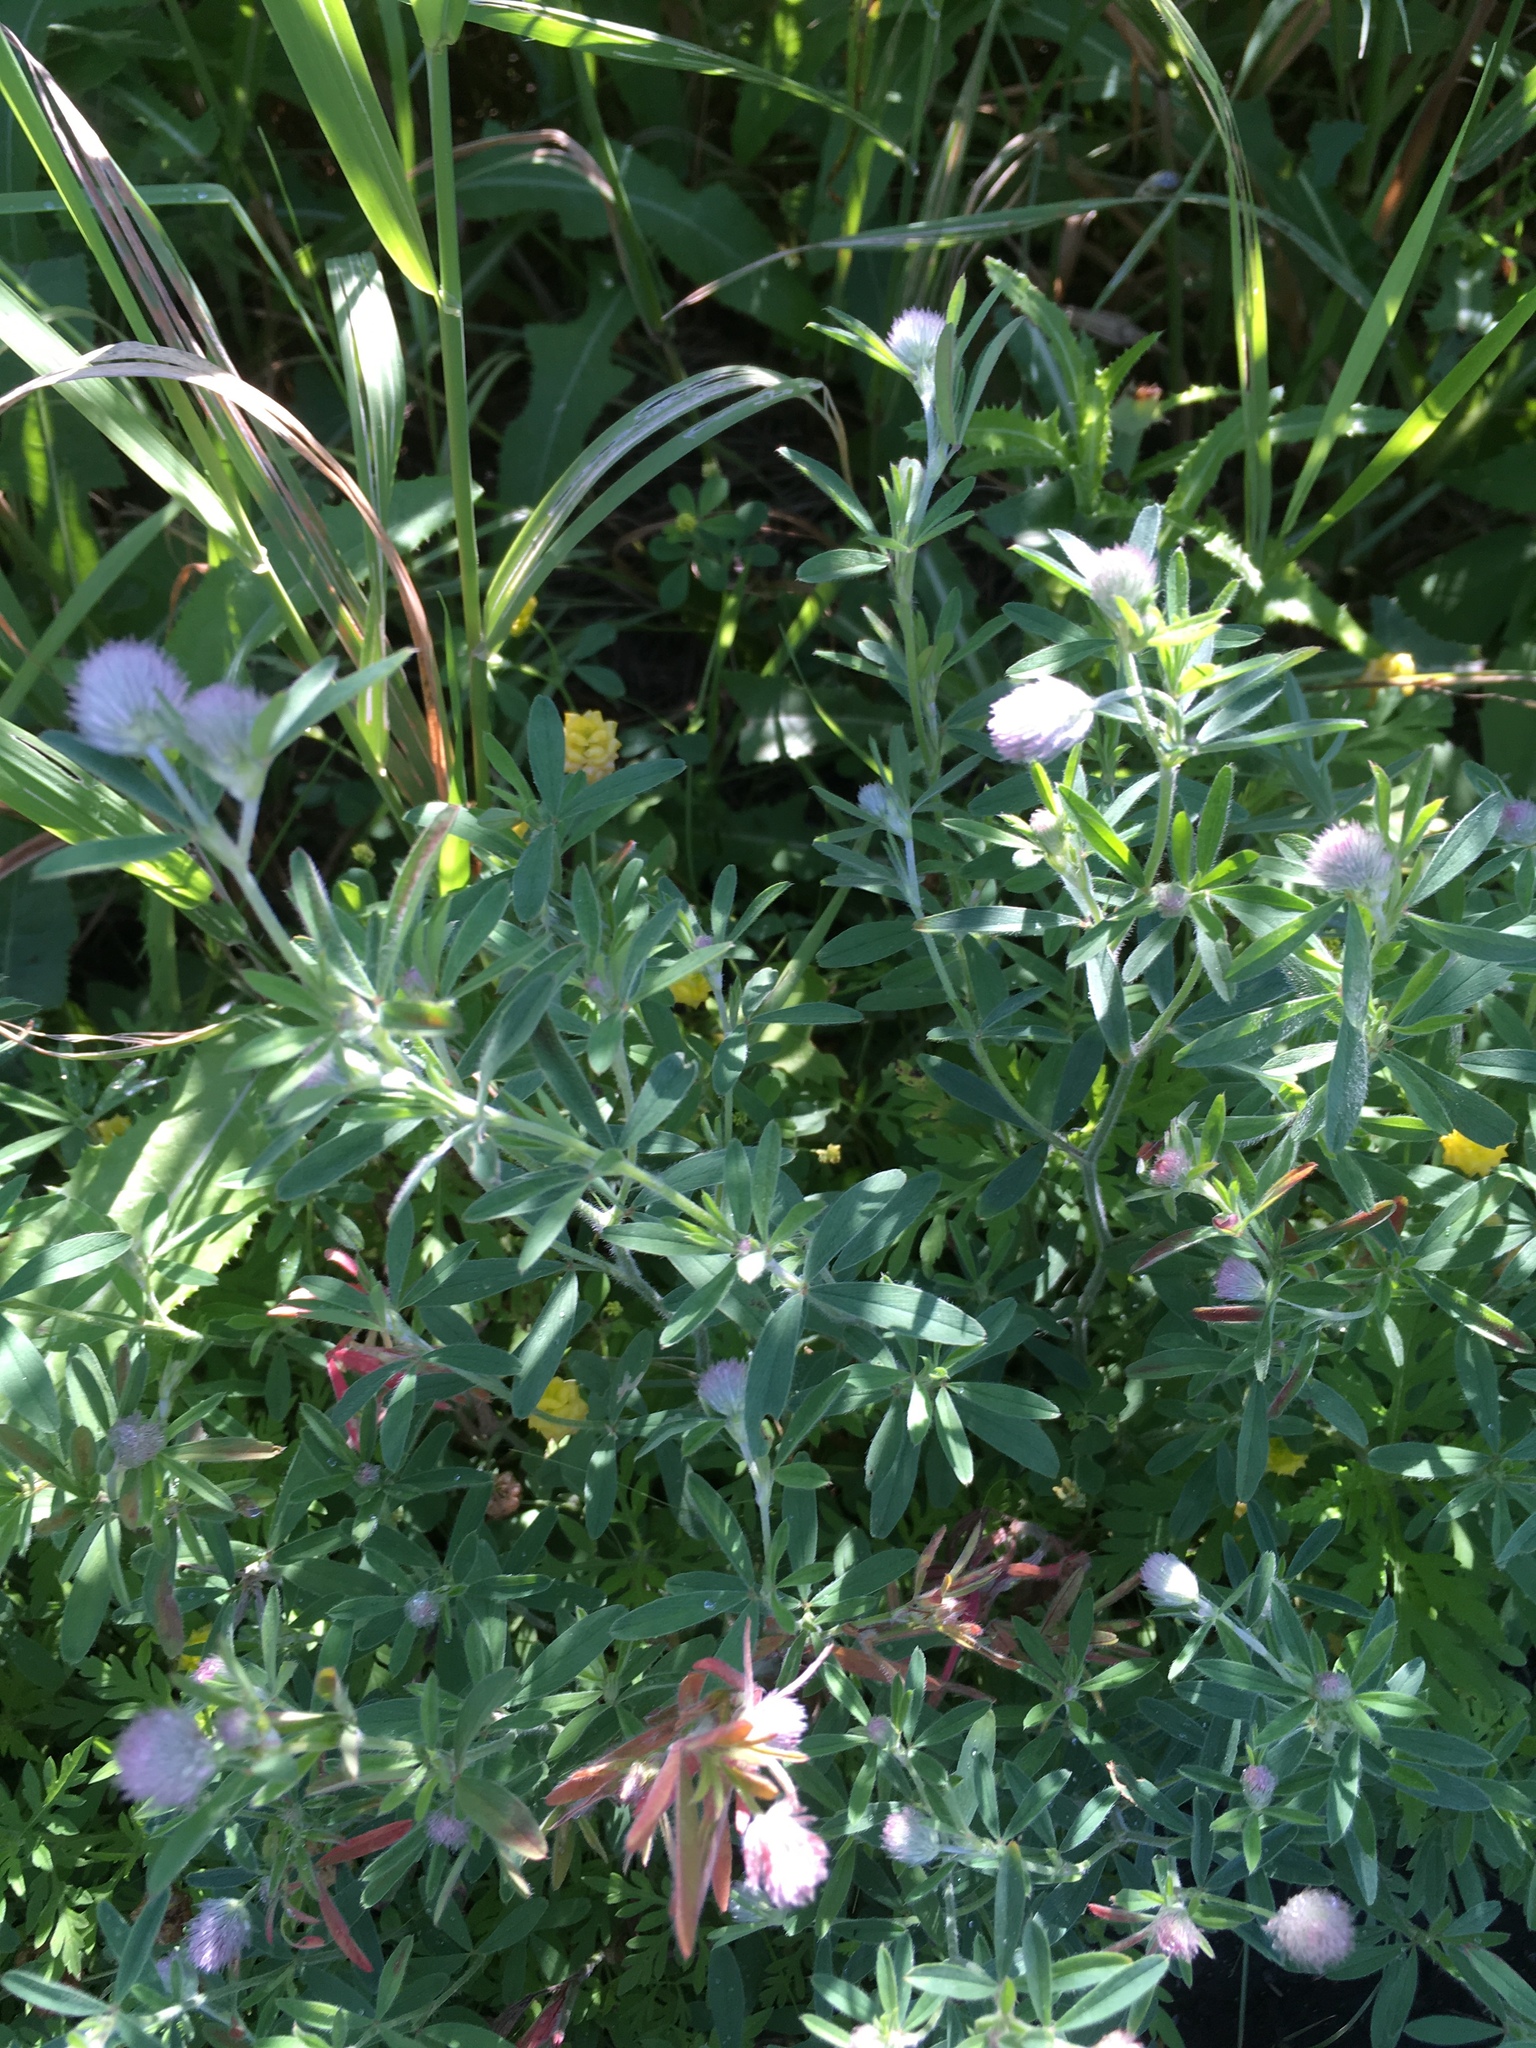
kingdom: Plantae
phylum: Tracheophyta
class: Magnoliopsida
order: Fabales
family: Fabaceae
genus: Trifolium
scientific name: Trifolium arvense
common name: Hare's-foot clover
